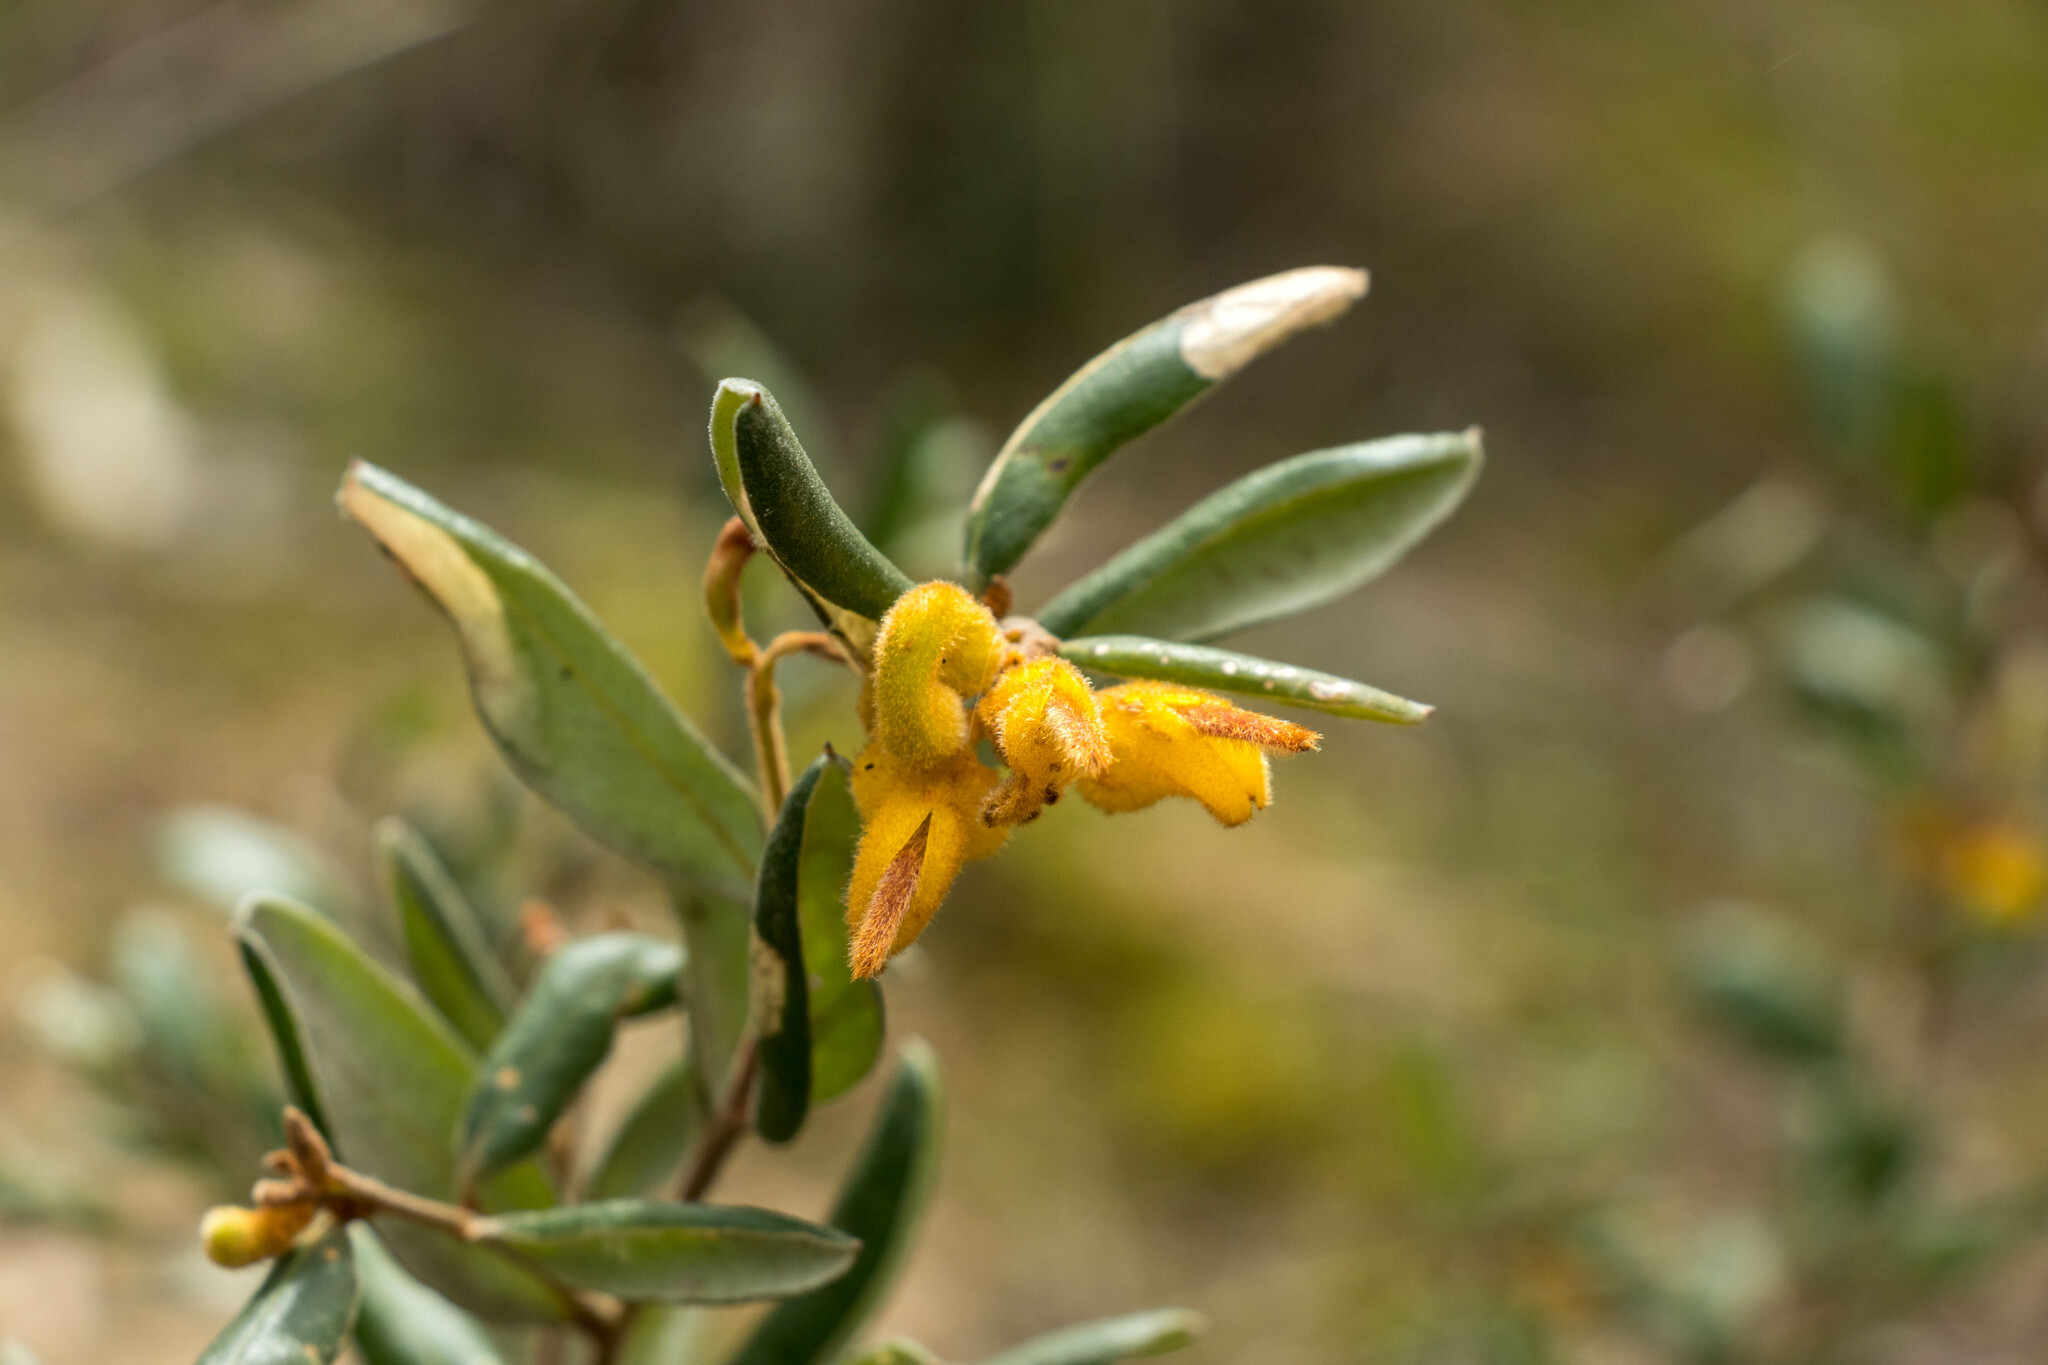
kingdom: Plantae
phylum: Tracheophyta
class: Magnoliopsida
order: Proteales
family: Proteaceae
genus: Grevillea
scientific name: Grevillea chrysophaea
